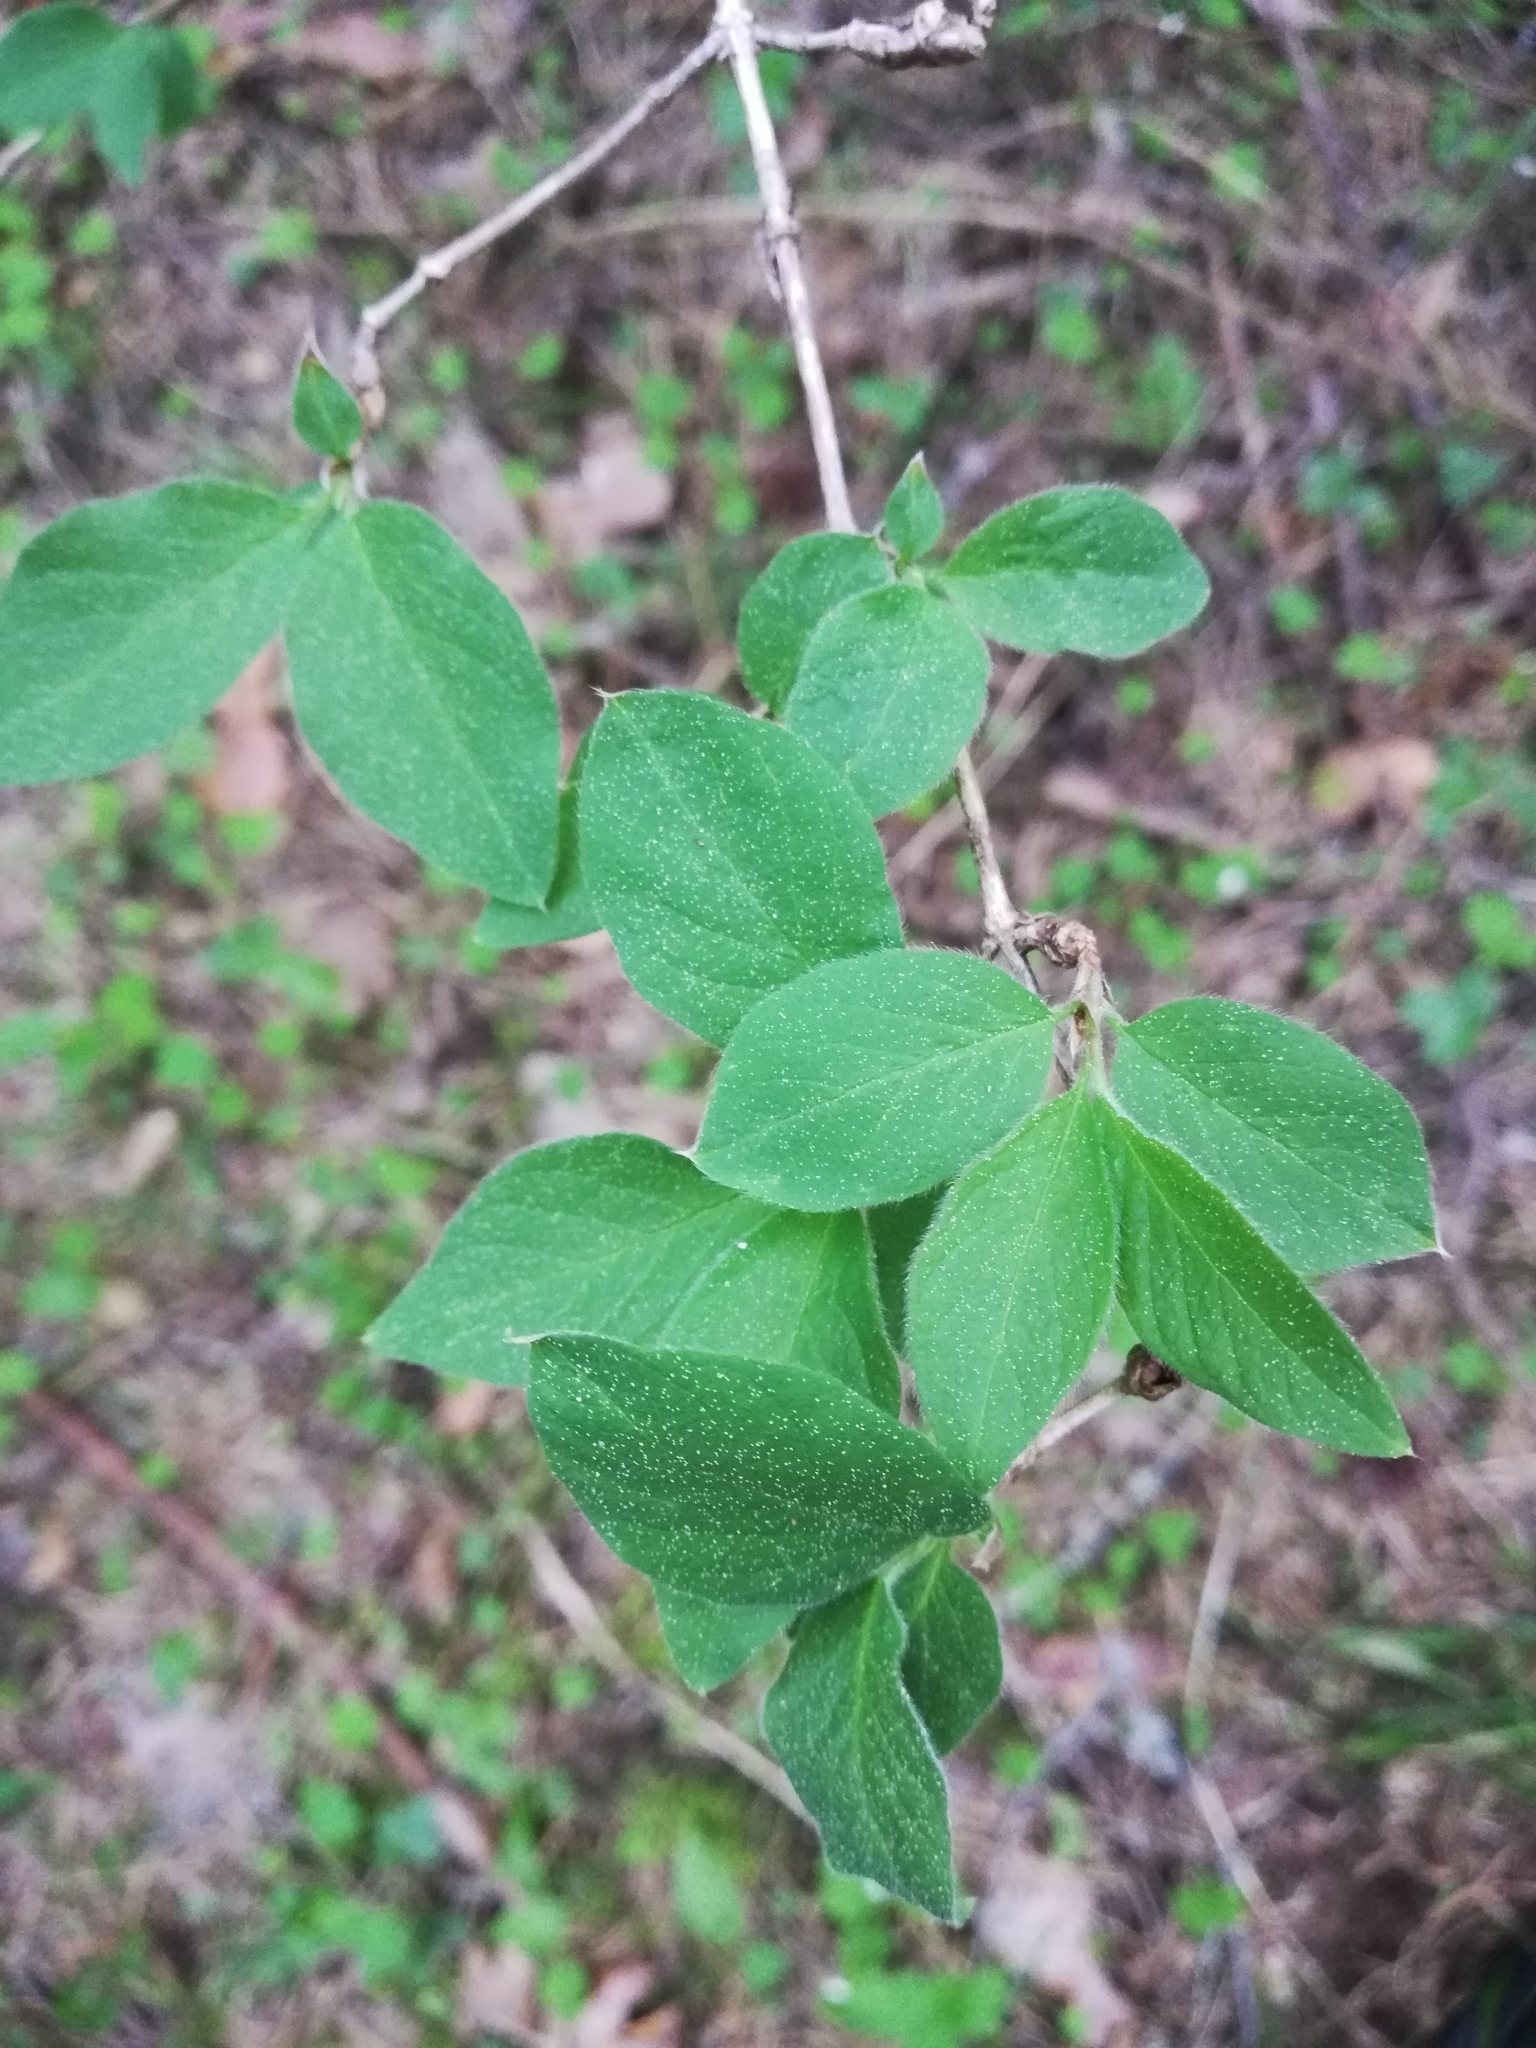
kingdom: Plantae
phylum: Tracheophyta
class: Magnoliopsida
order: Dipsacales
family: Caprifoliaceae
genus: Lonicera
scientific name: Lonicera xylosteum
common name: Fly honeysuckle
